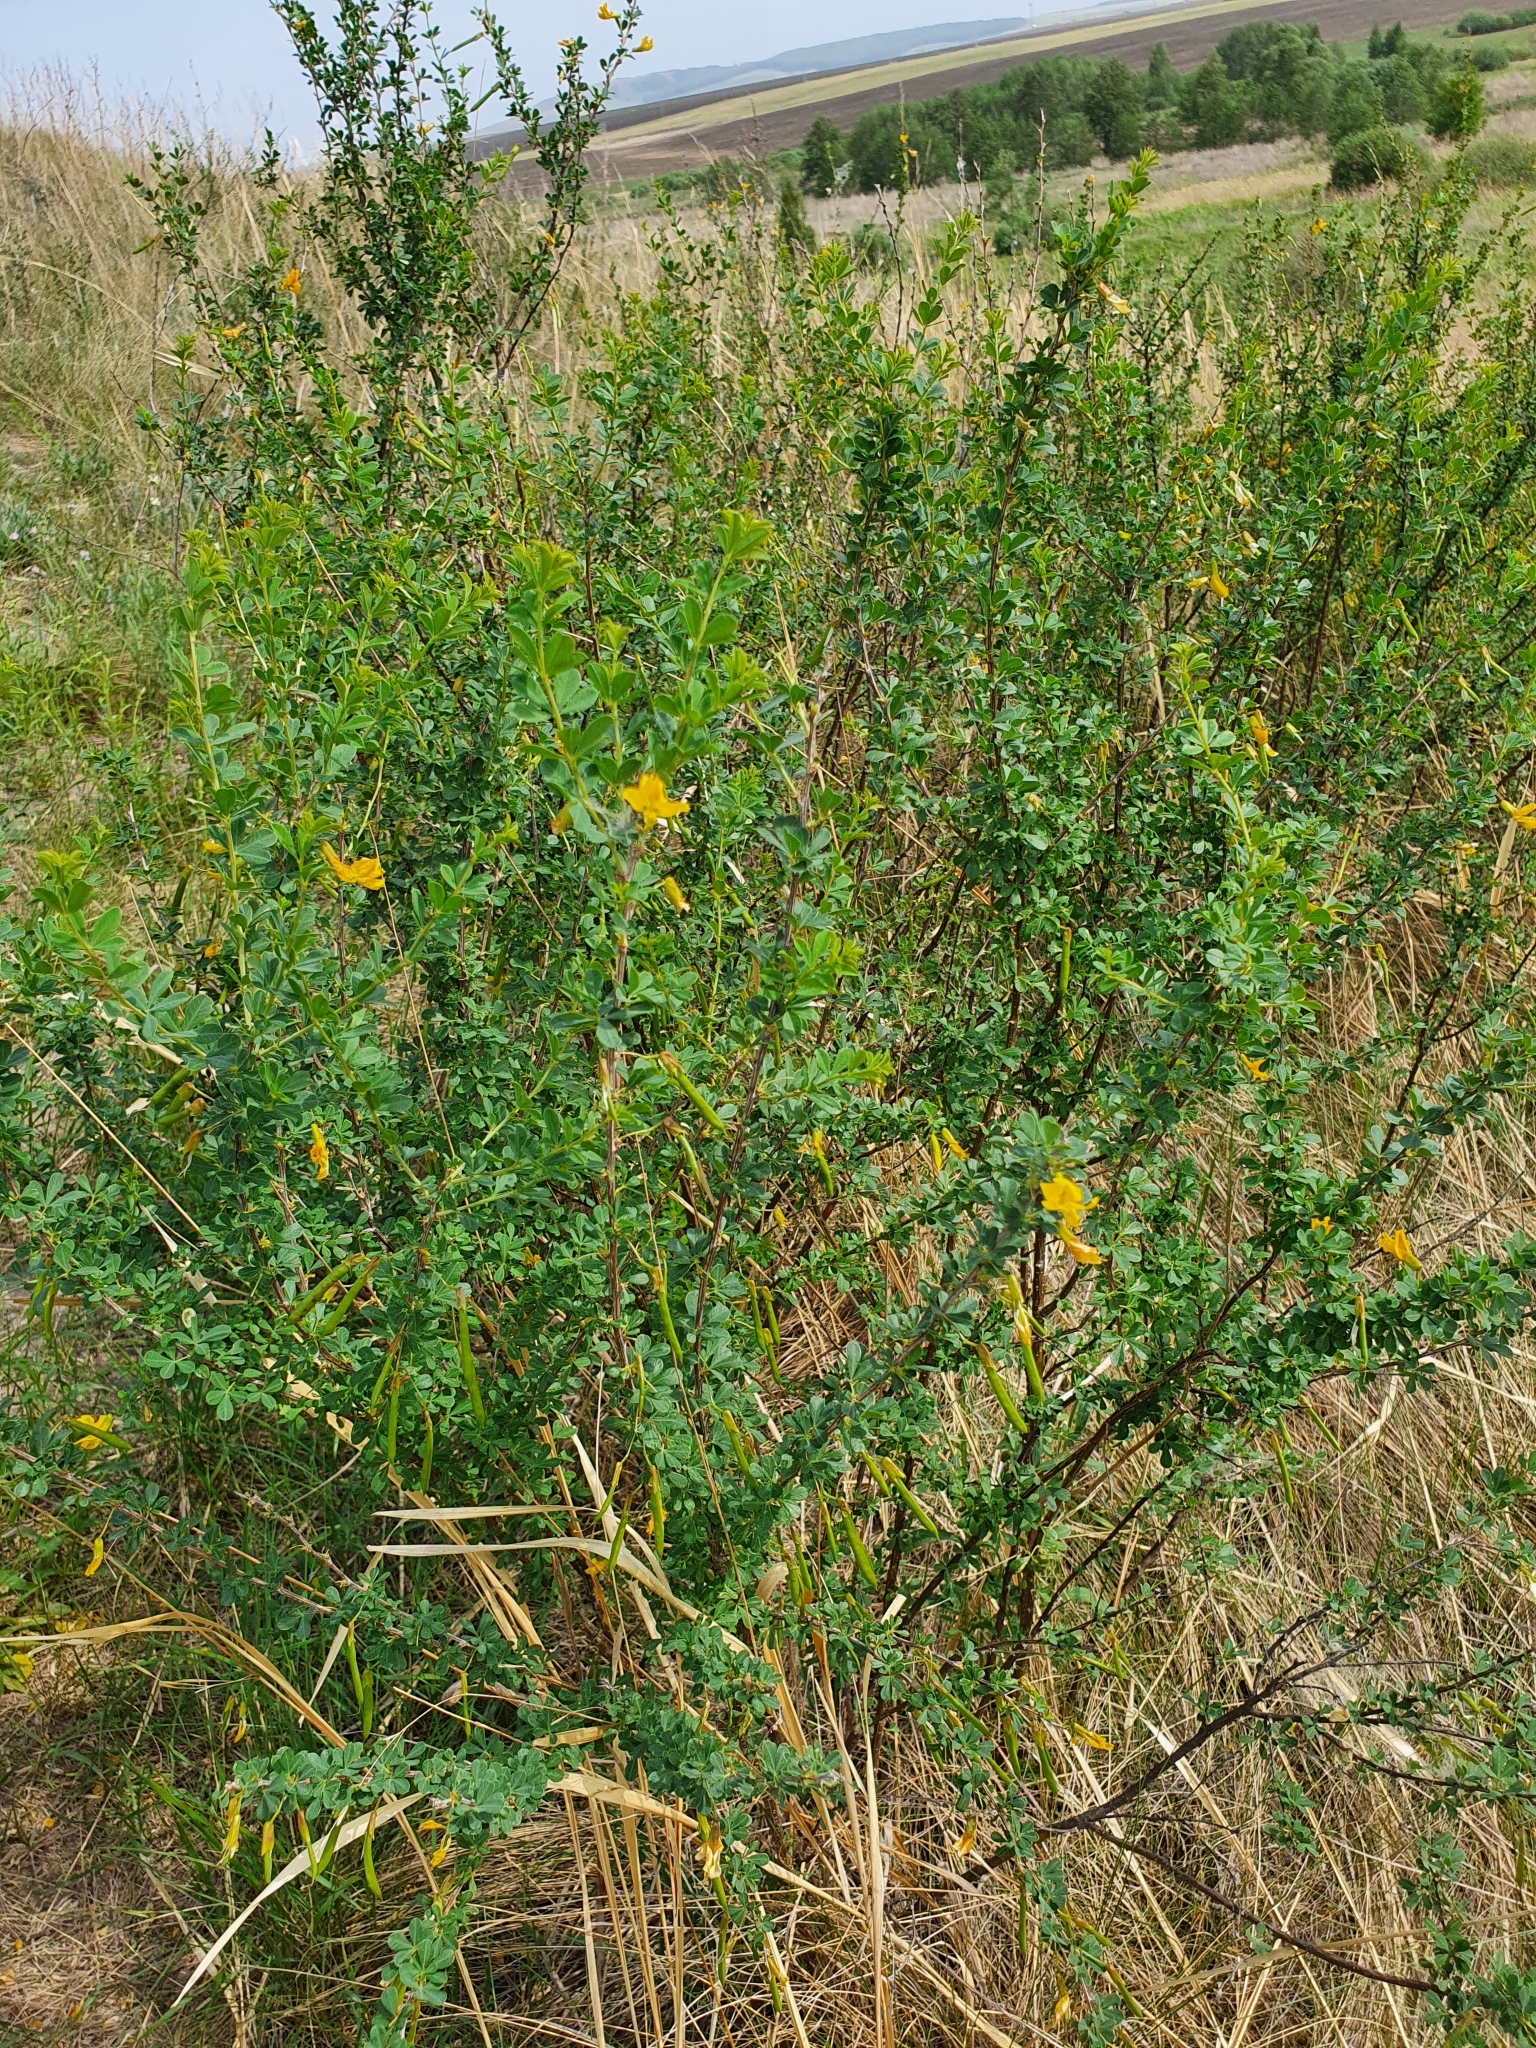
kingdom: Plantae
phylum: Tracheophyta
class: Magnoliopsida
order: Fabales
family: Fabaceae
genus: Caragana
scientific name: Caragana frutex
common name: Russian peashrub
